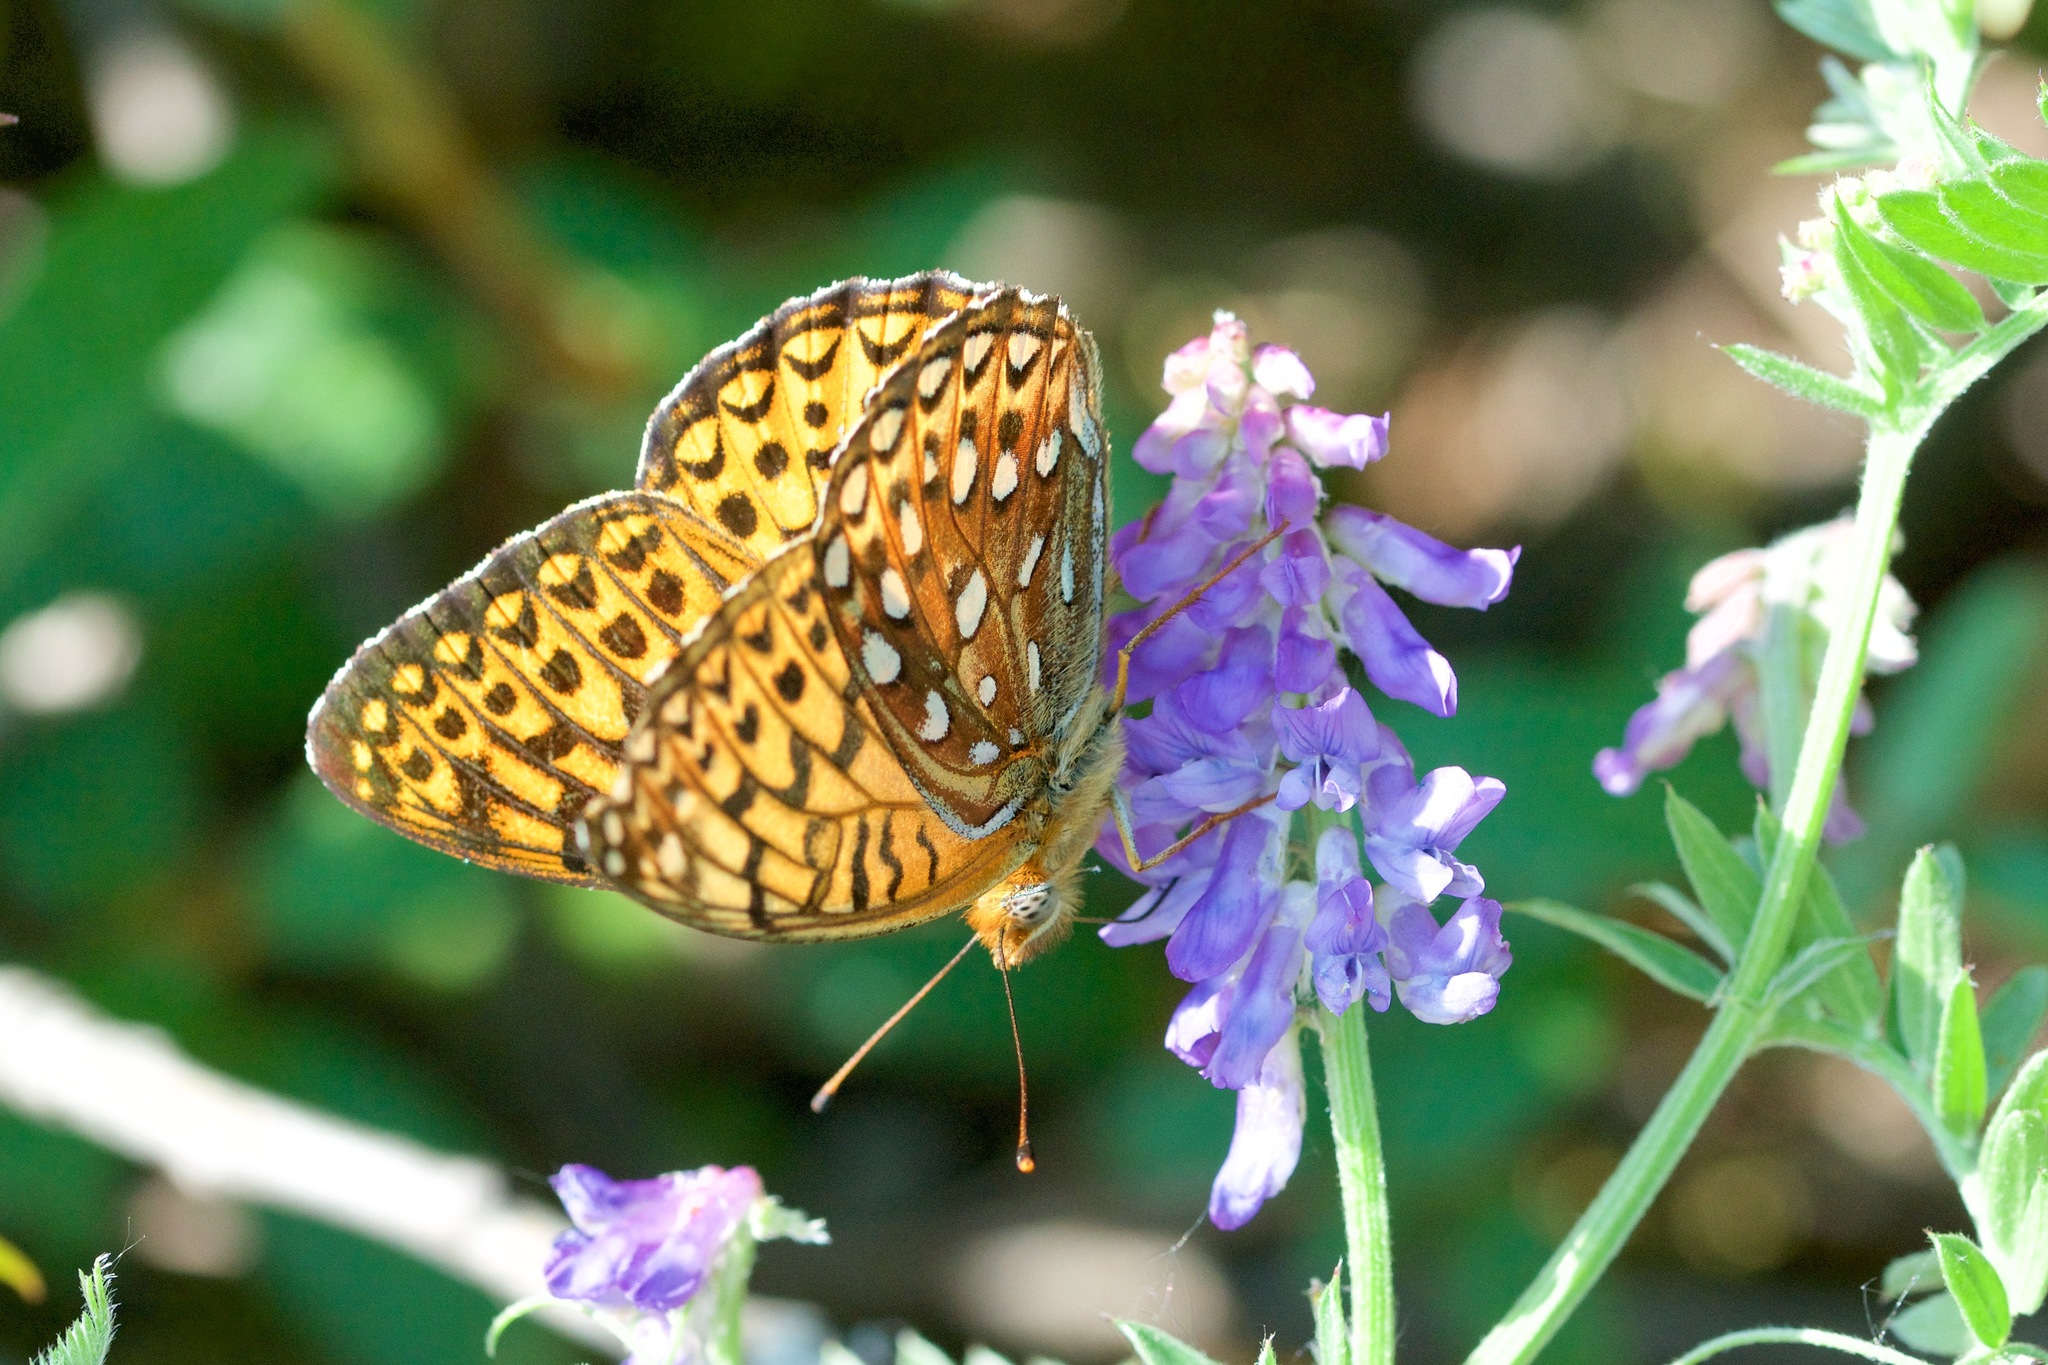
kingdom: Animalia
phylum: Arthropoda
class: Insecta
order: Lepidoptera
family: Nymphalidae
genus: Speyeria
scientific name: Speyeria atlantis
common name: Atlantis fritillary
